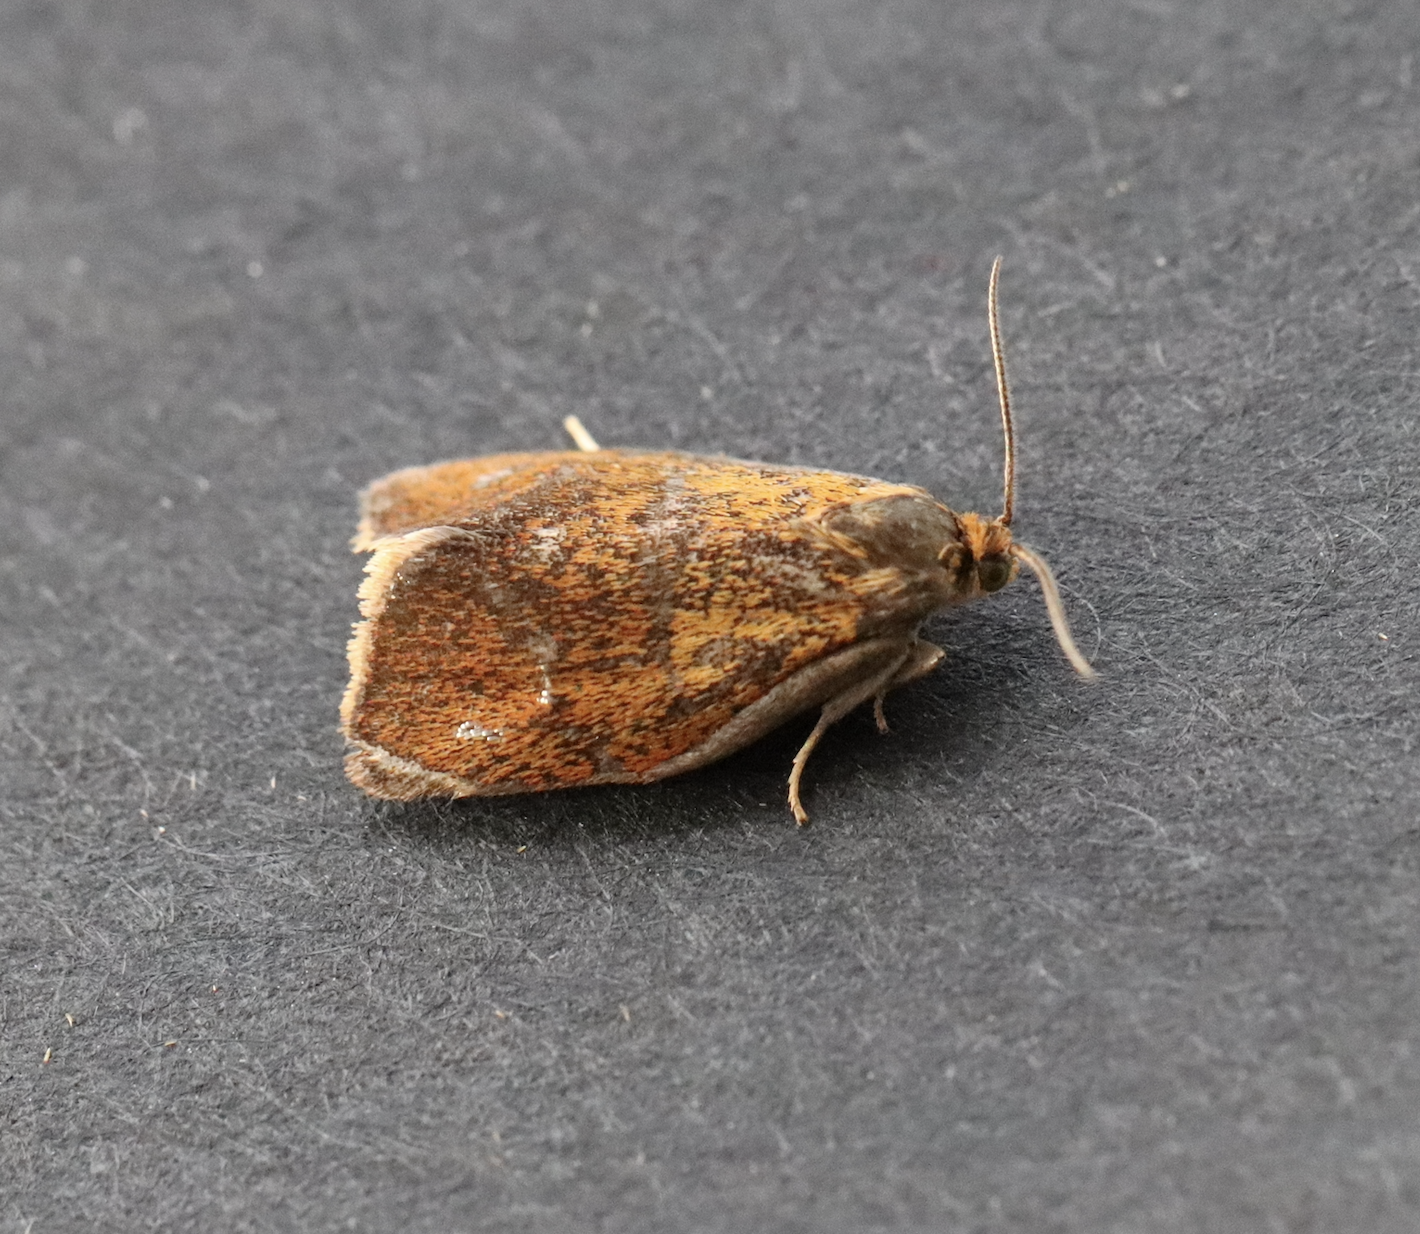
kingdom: Animalia
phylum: Arthropoda
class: Insecta
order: Lepidoptera
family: Tortricidae
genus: Ptycholoma
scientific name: Ptycholoma lecheana
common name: Leches twist moth
